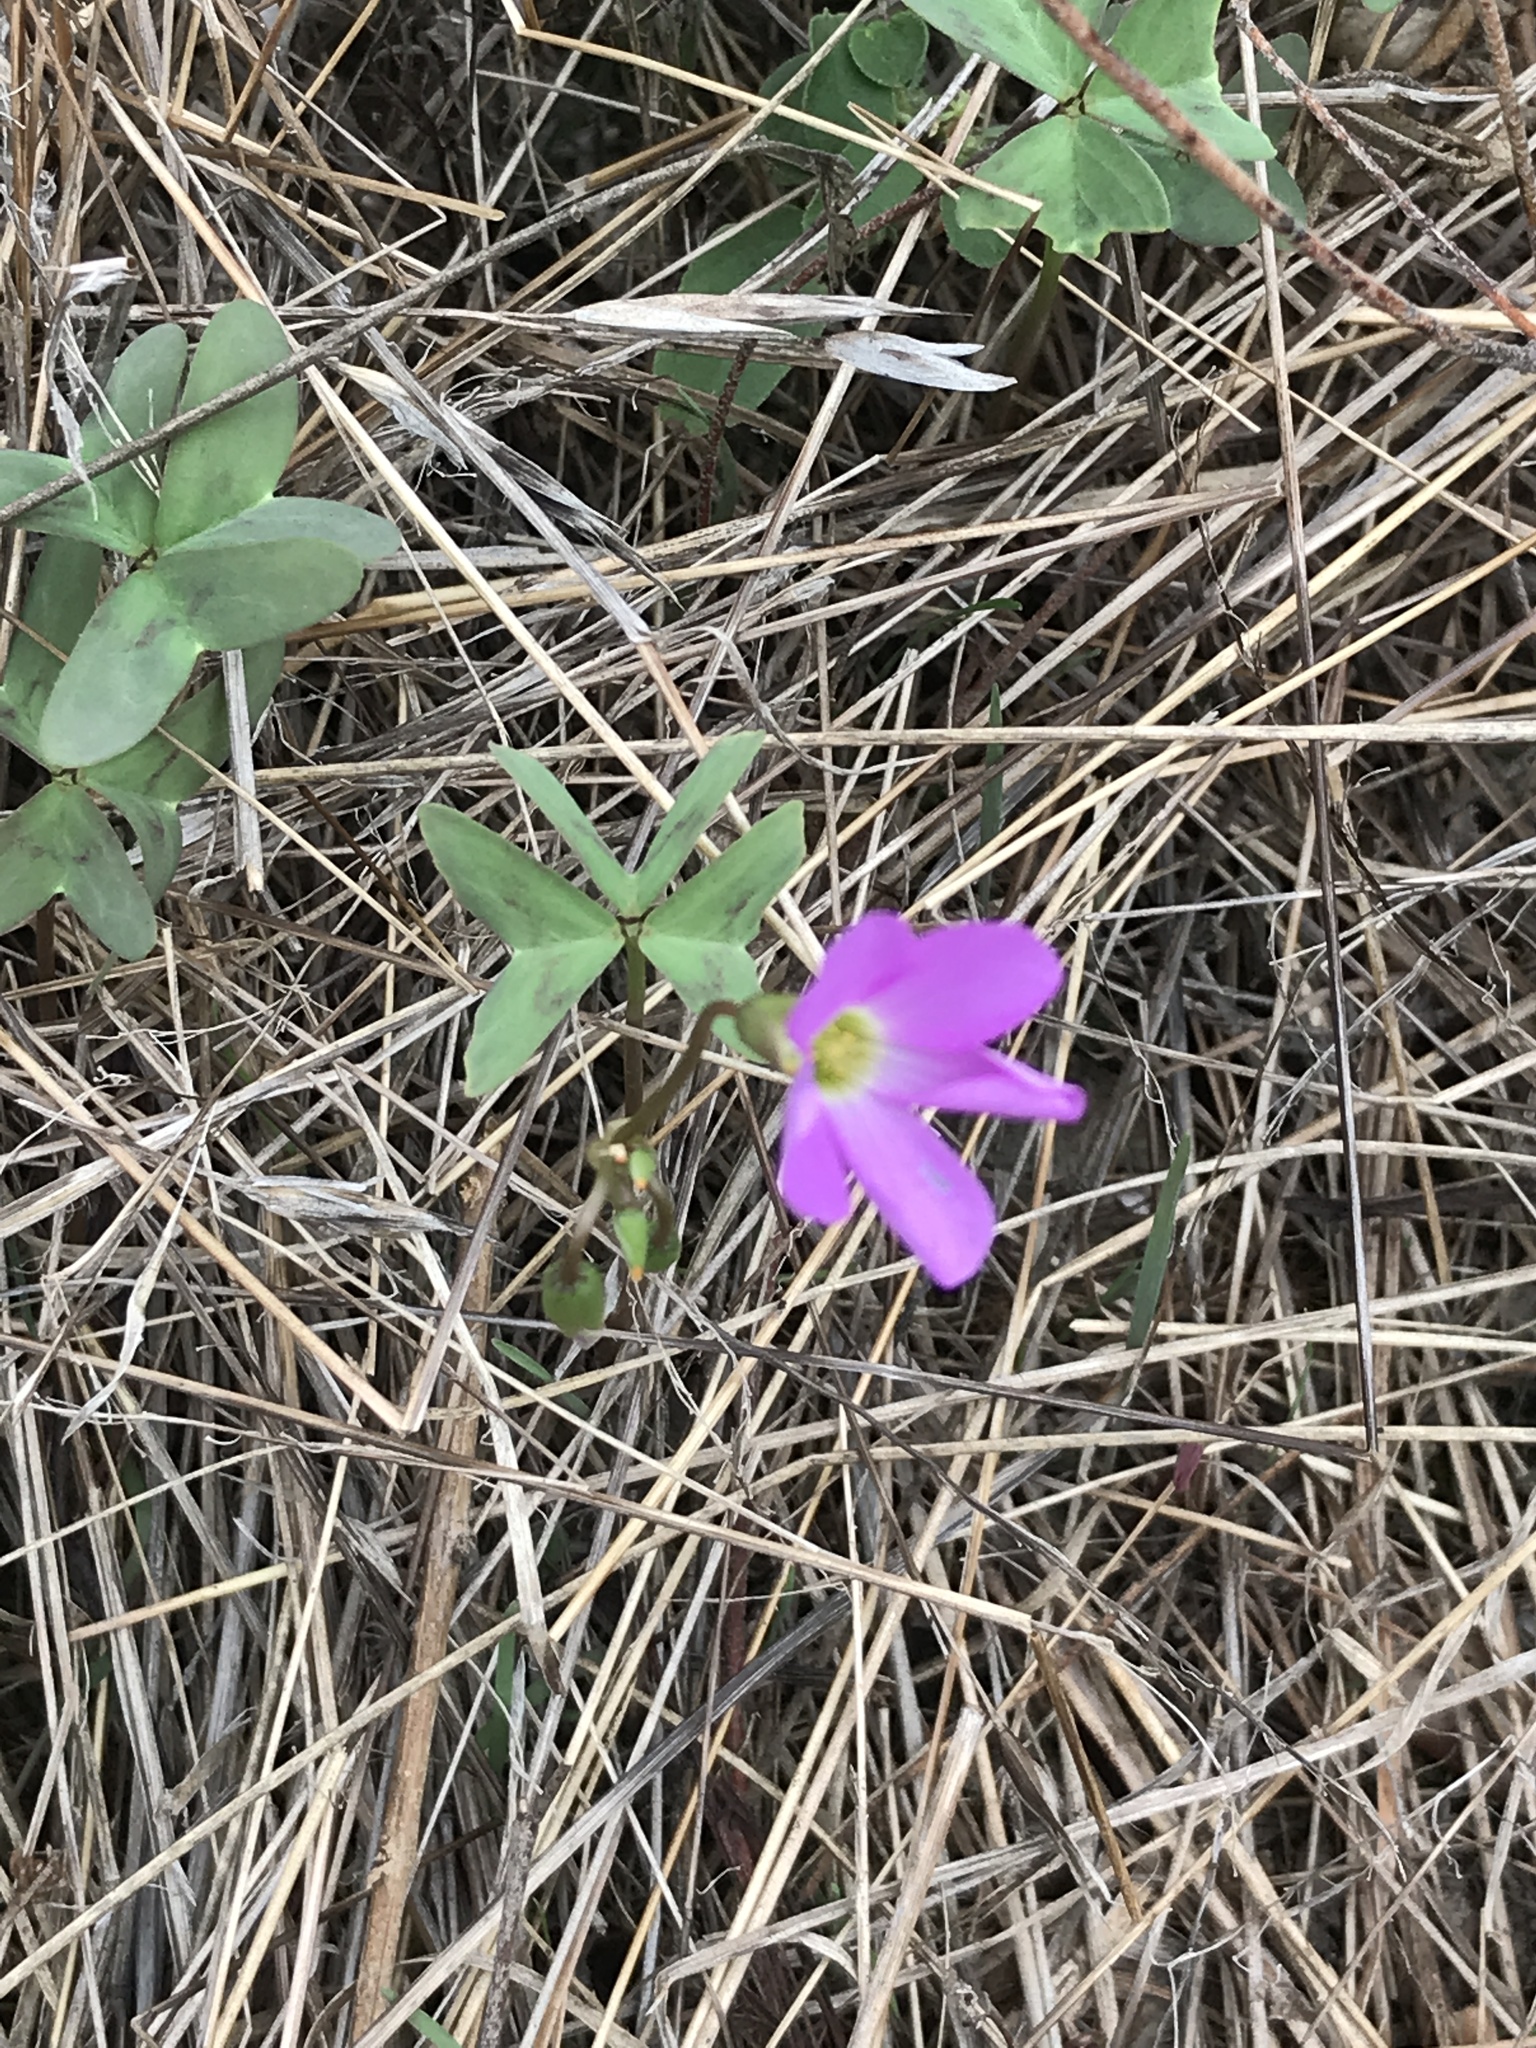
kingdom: Plantae
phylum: Tracheophyta
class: Magnoliopsida
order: Oxalidales
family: Oxalidaceae
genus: Oxalis
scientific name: Oxalis drummondii
